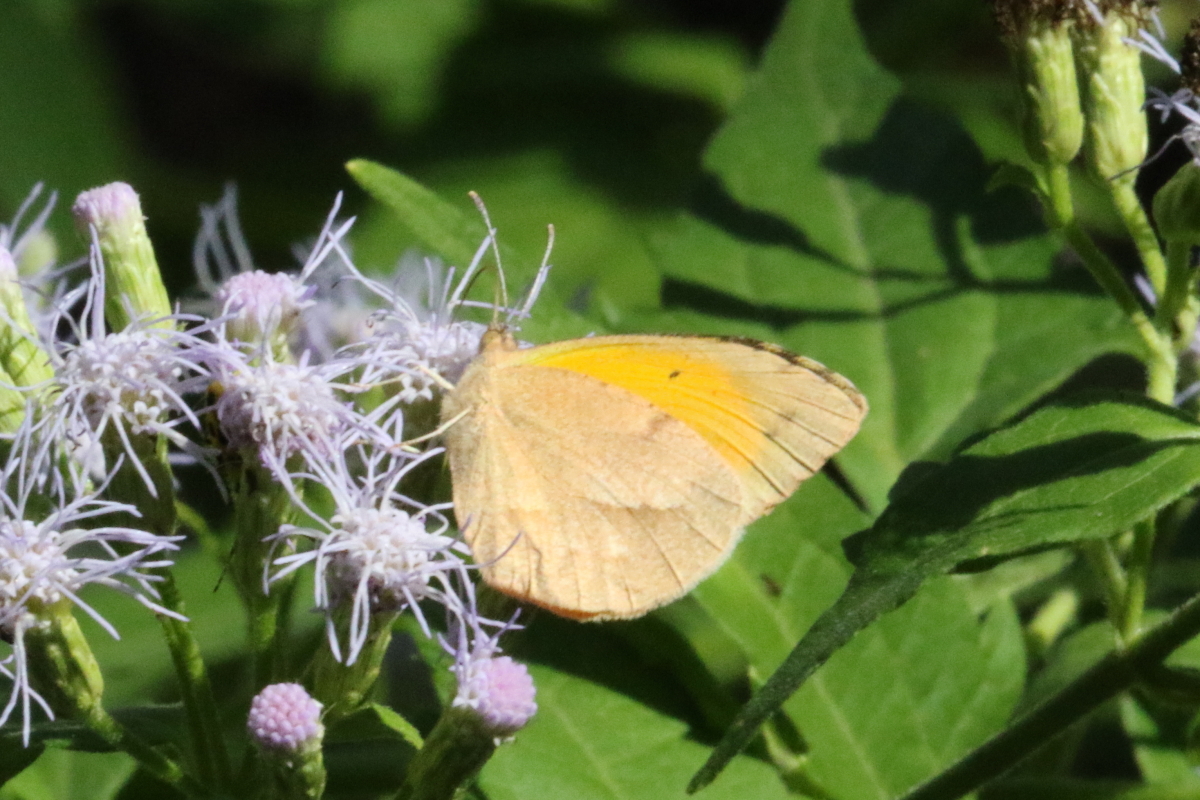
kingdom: Animalia
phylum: Arthropoda
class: Insecta
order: Lepidoptera
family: Pieridae
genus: Abaeis
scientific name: Abaeis nicippe
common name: Sleepy orange
